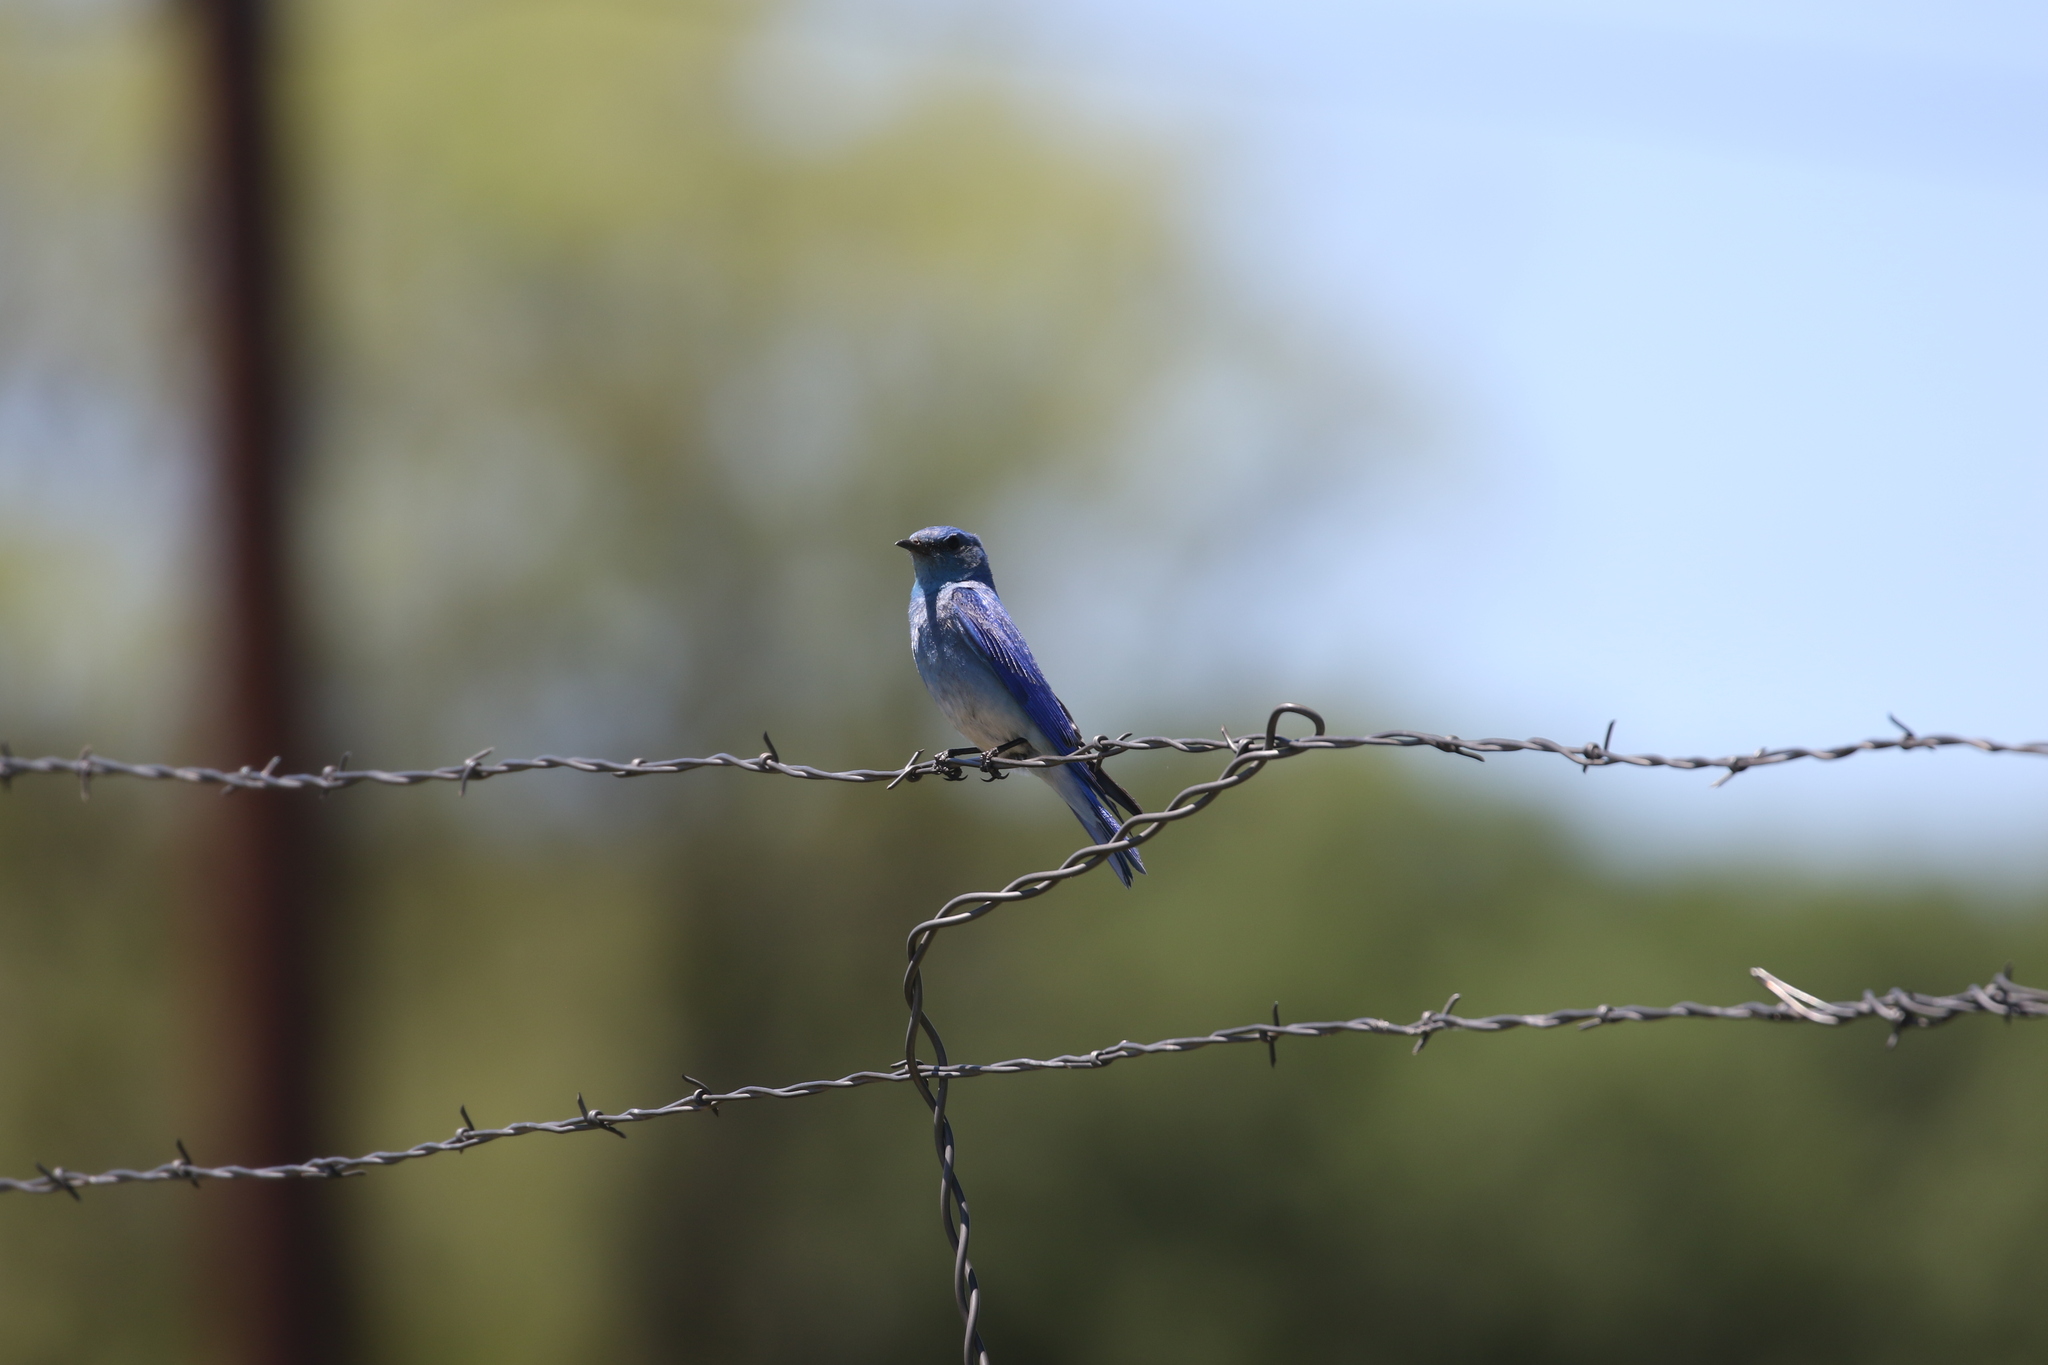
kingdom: Animalia
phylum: Chordata
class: Aves
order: Passeriformes
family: Turdidae
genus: Sialia
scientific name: Sialia currucoides
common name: Mountain bluebird
